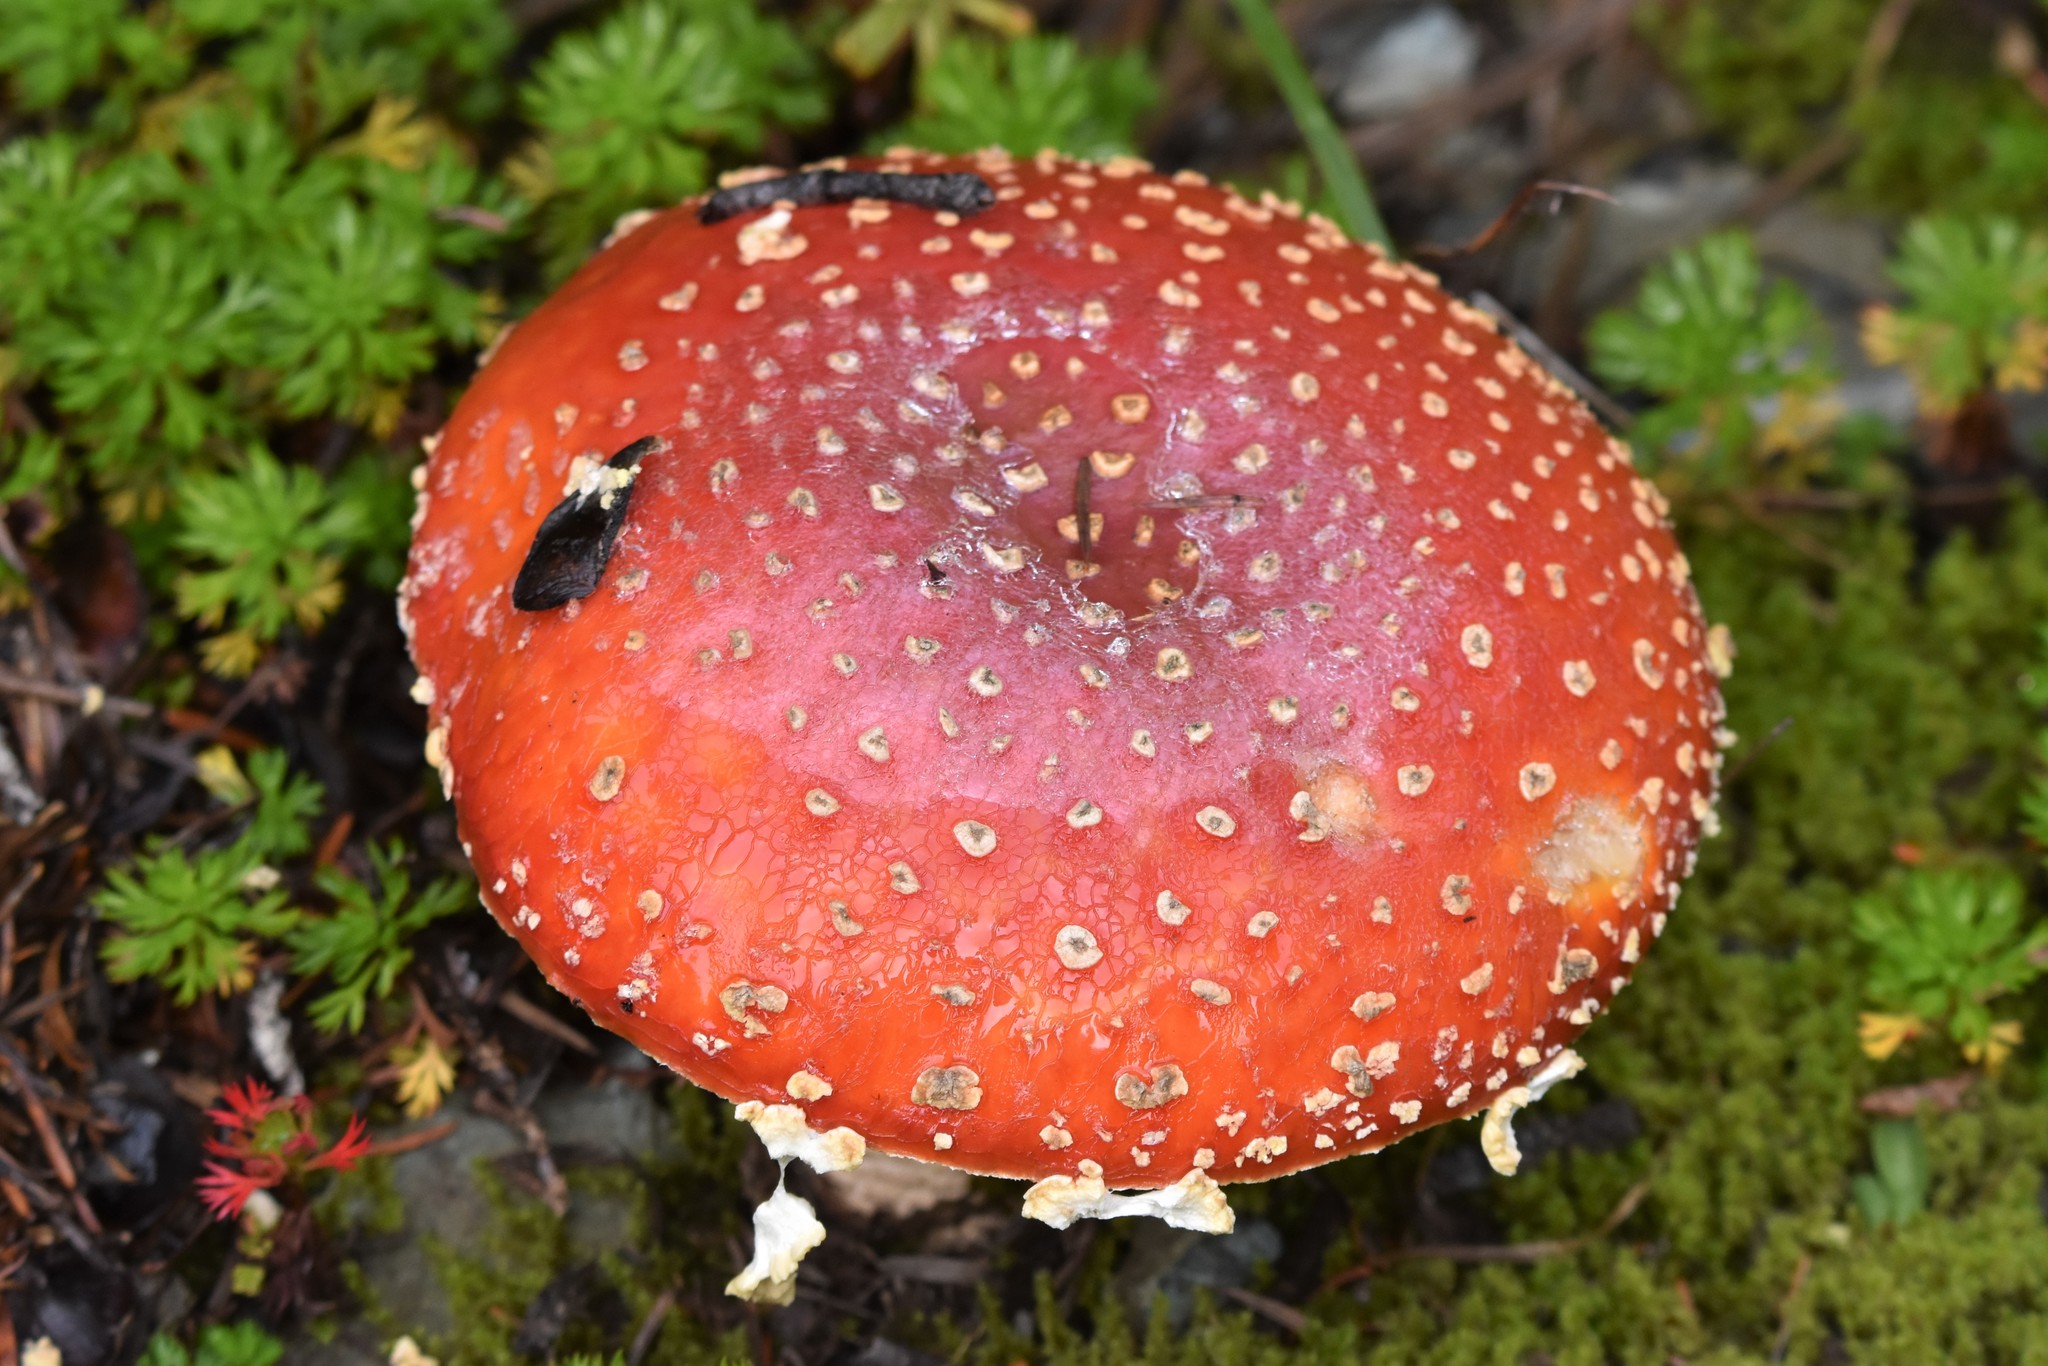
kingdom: Fungi
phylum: Basidiomycota
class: Agaricomycetes
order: Agaricales
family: Amanitaceae
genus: Amanita
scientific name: Amanita muscaria
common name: Fly agaric
